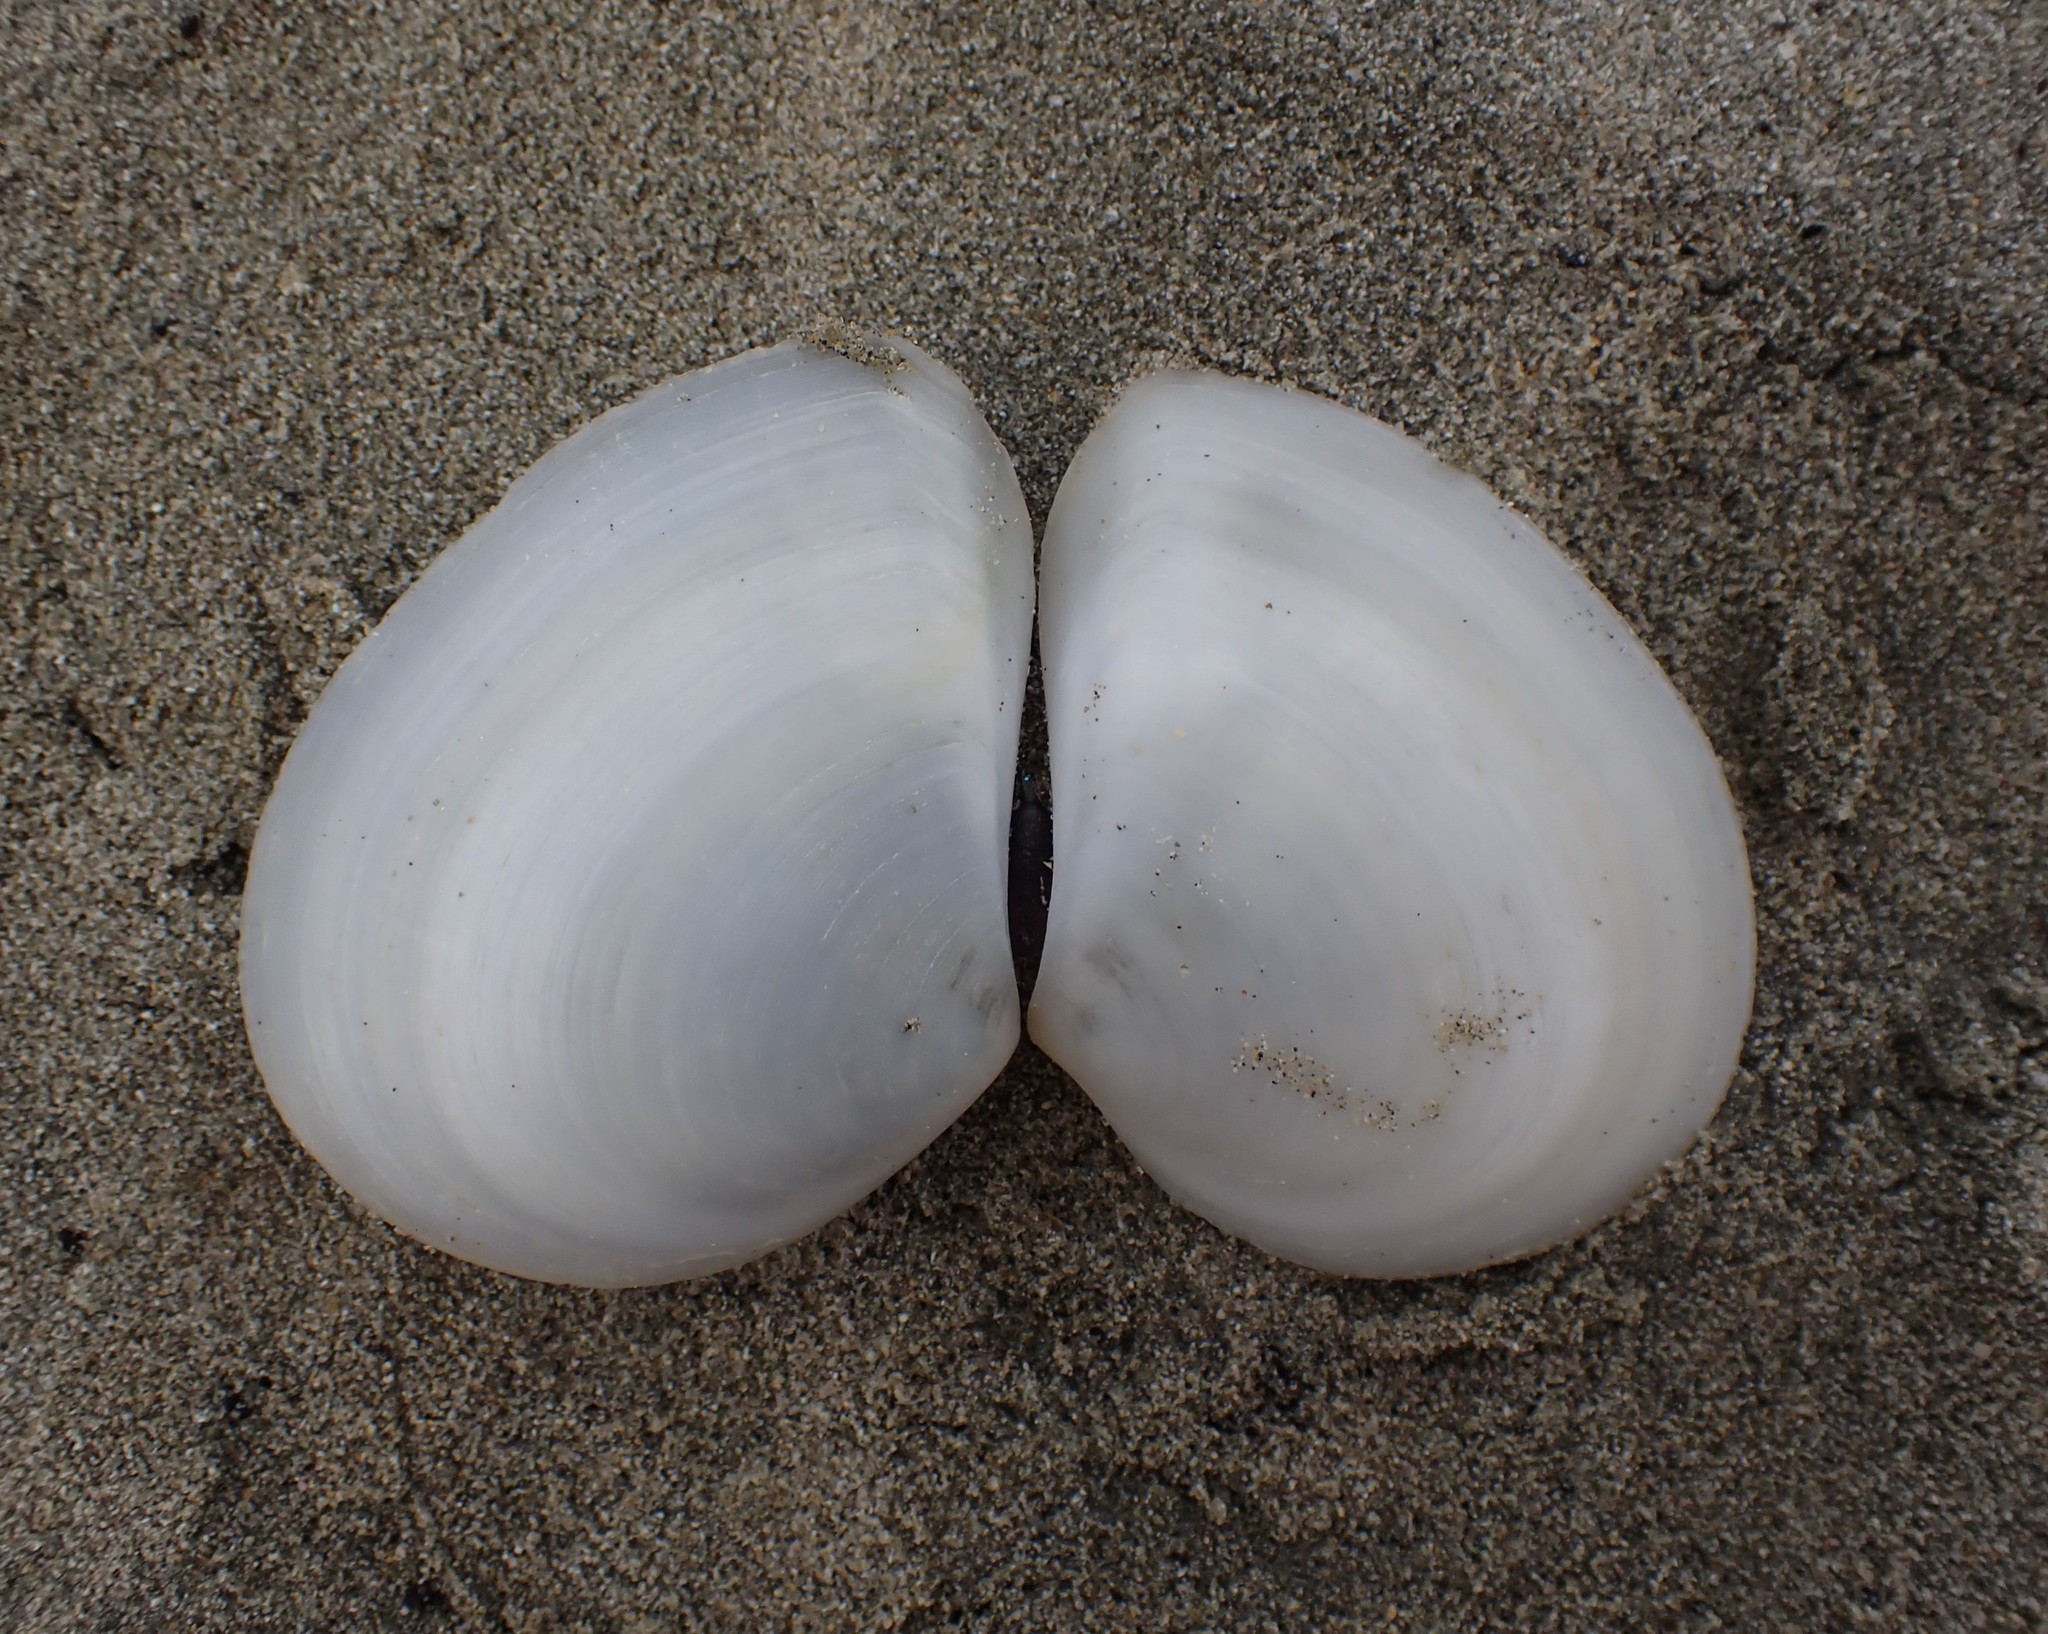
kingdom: Animalia
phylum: Mollusca
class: Bivalvia
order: Cardiida
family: Tellinidae
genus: Macomona
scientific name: Macomona liliana
